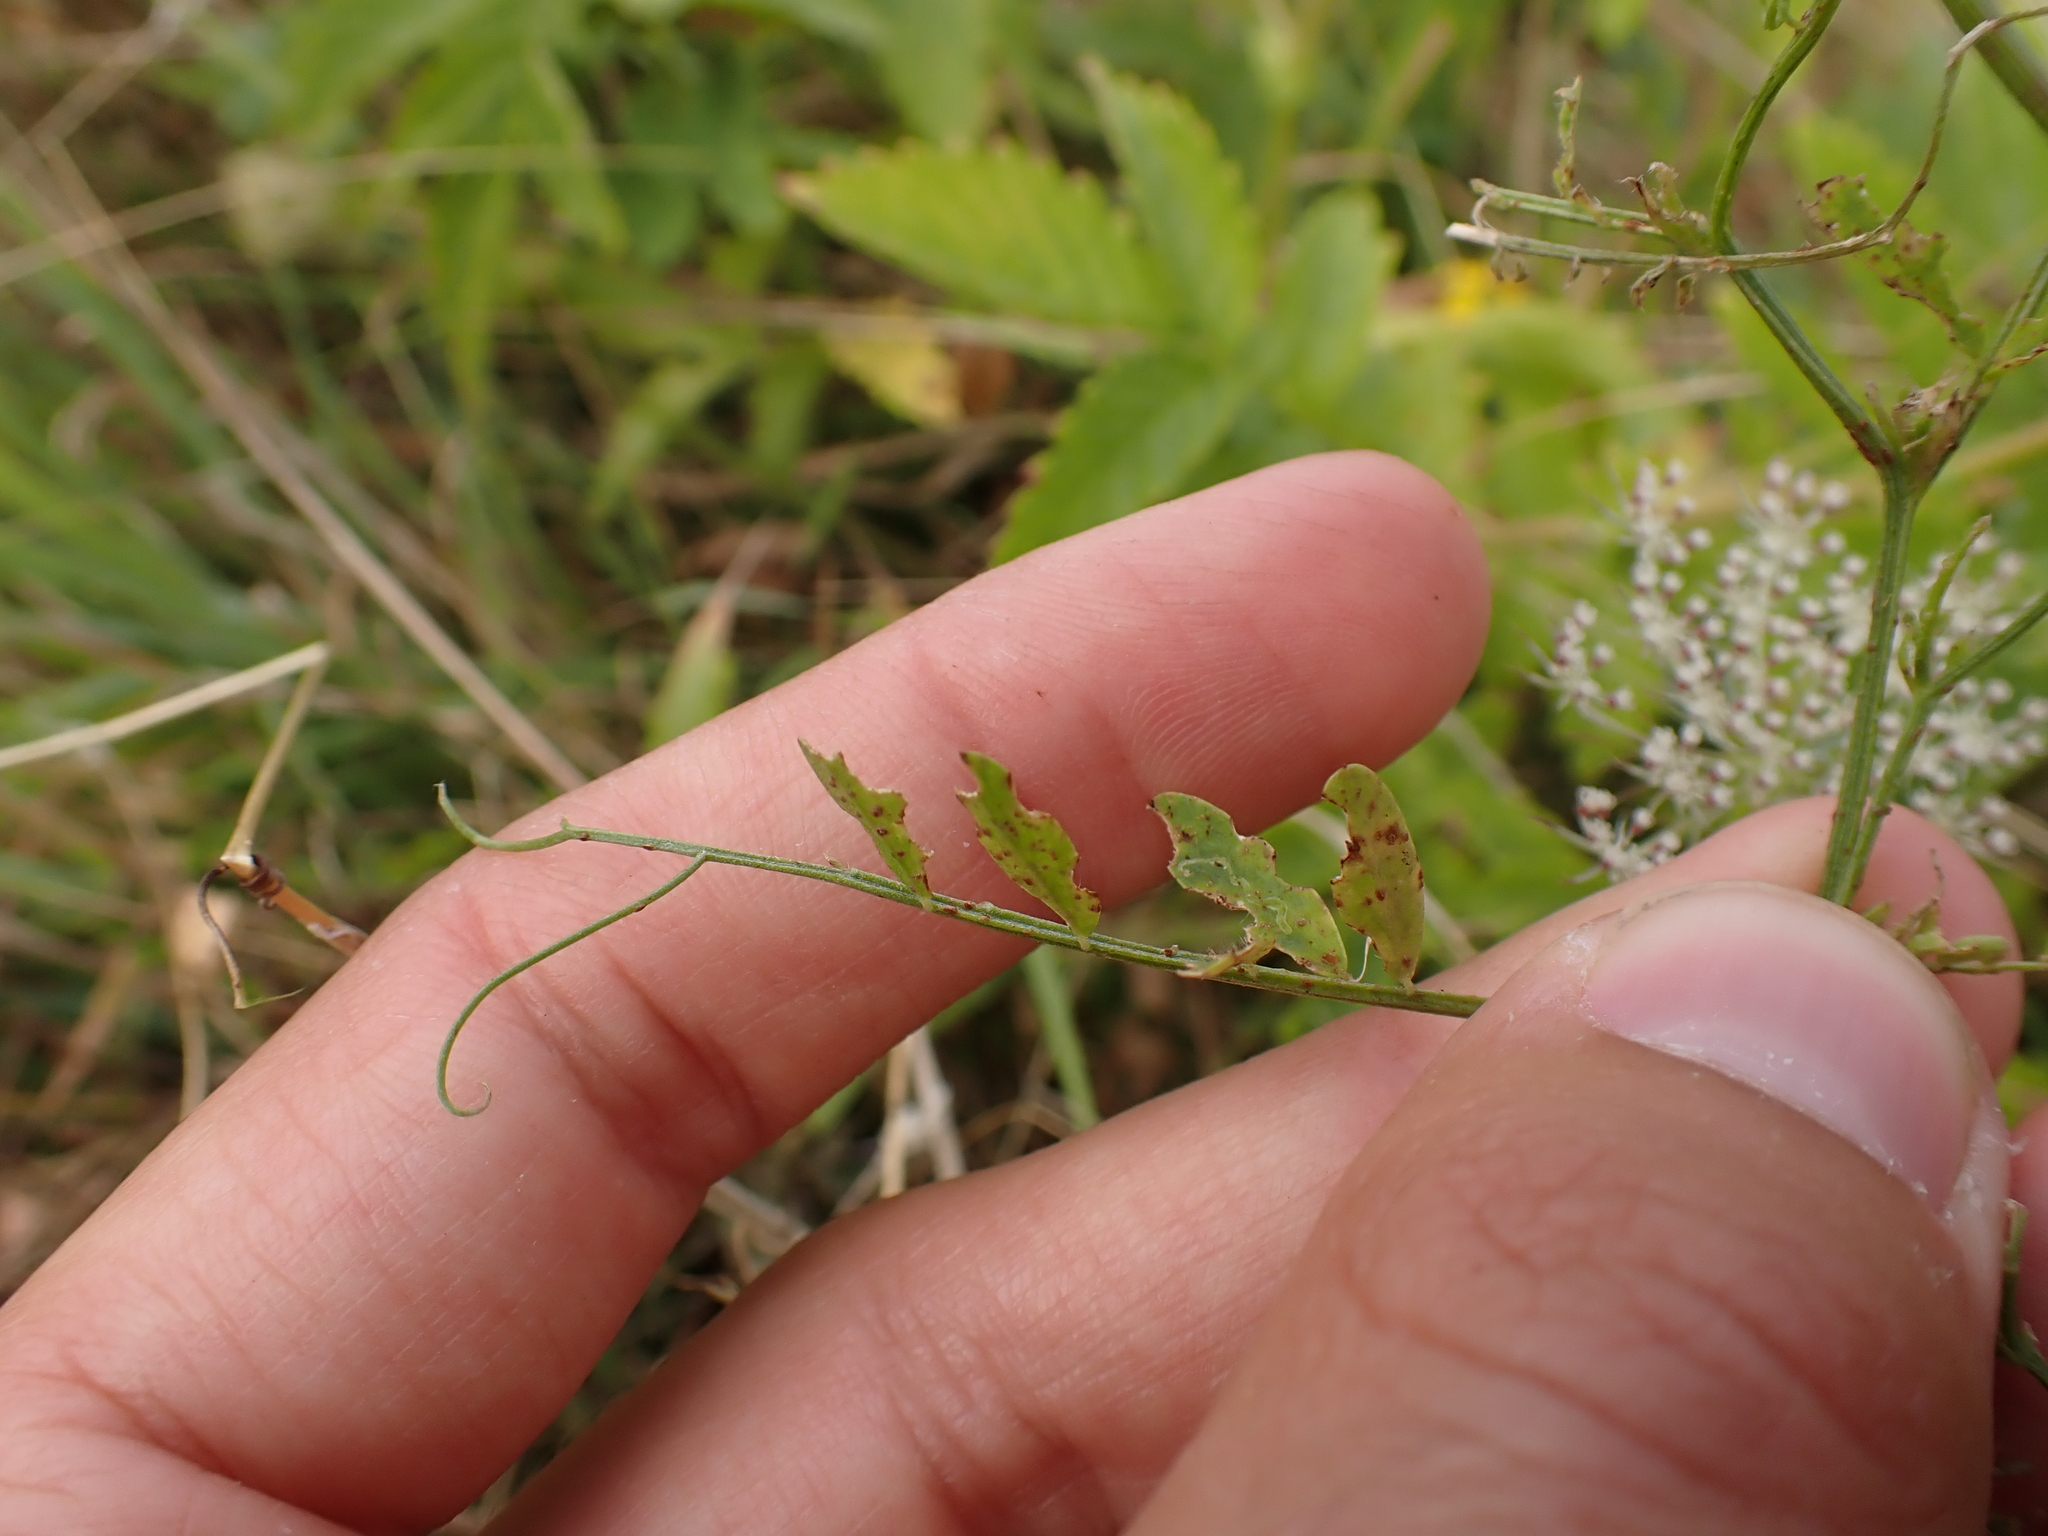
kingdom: Plantae
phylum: Tracheophyta
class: Magnoliopsida
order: Fabales
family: Fabaceae
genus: Vicia
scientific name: Vicia villosa
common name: Fodder vetch
